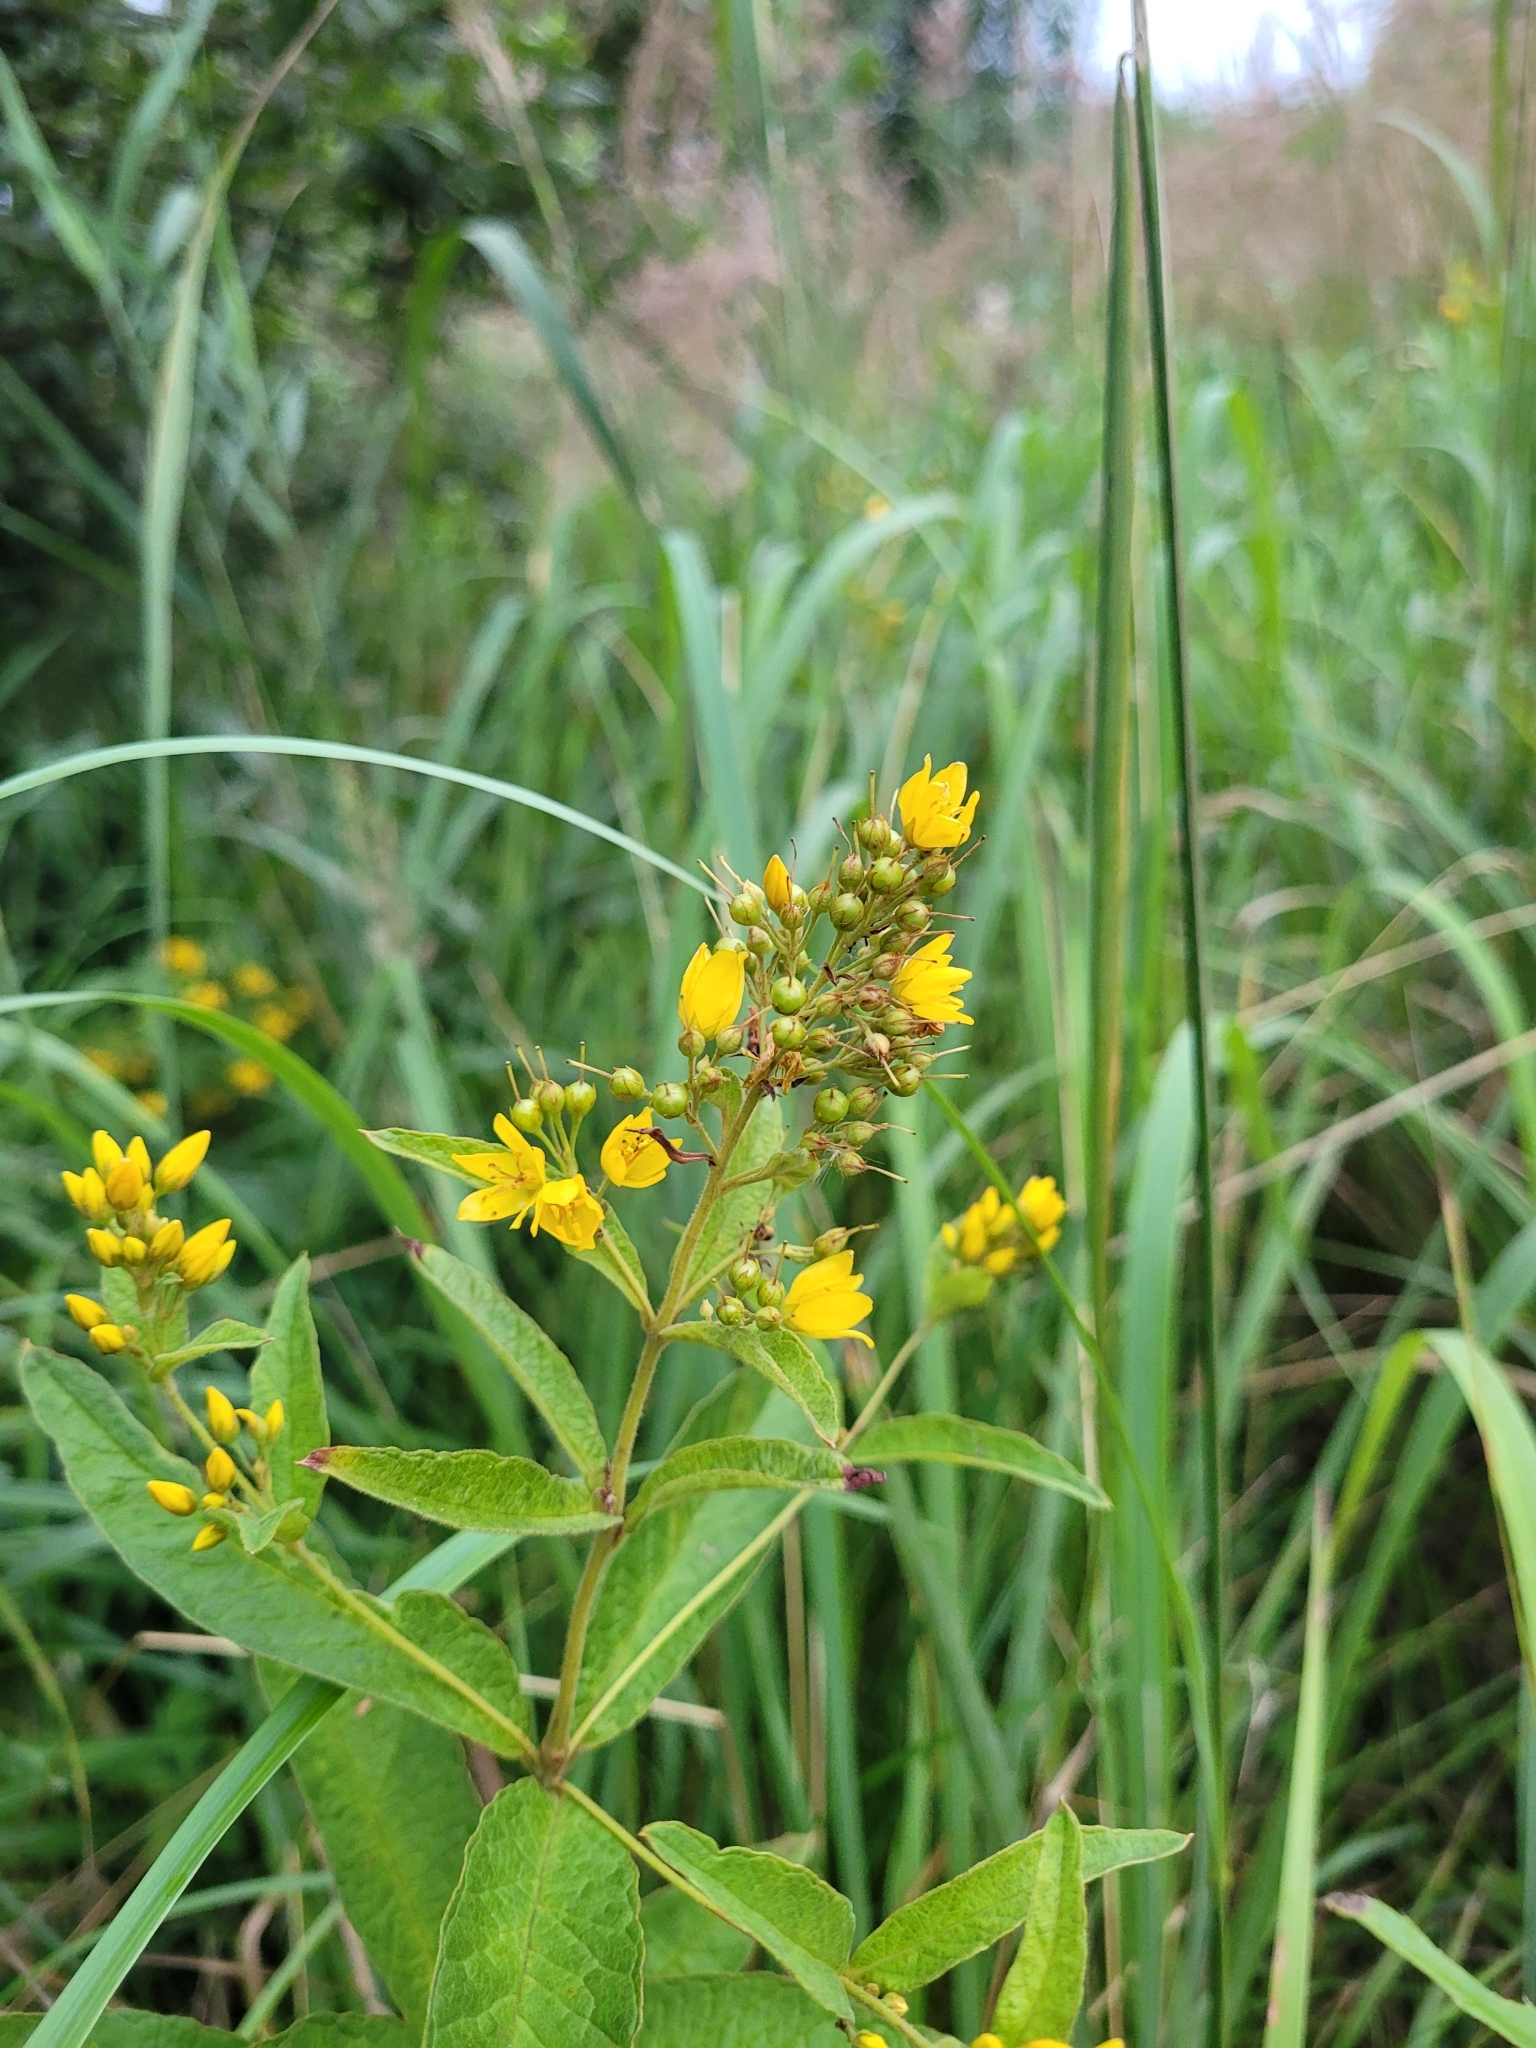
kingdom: Plantae
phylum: Tracheophyta
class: Magnoliopsida
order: Ericales
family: Primulaceae
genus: Lysimachia
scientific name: Lysimachia vulgaris
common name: Yellow loosestrife
